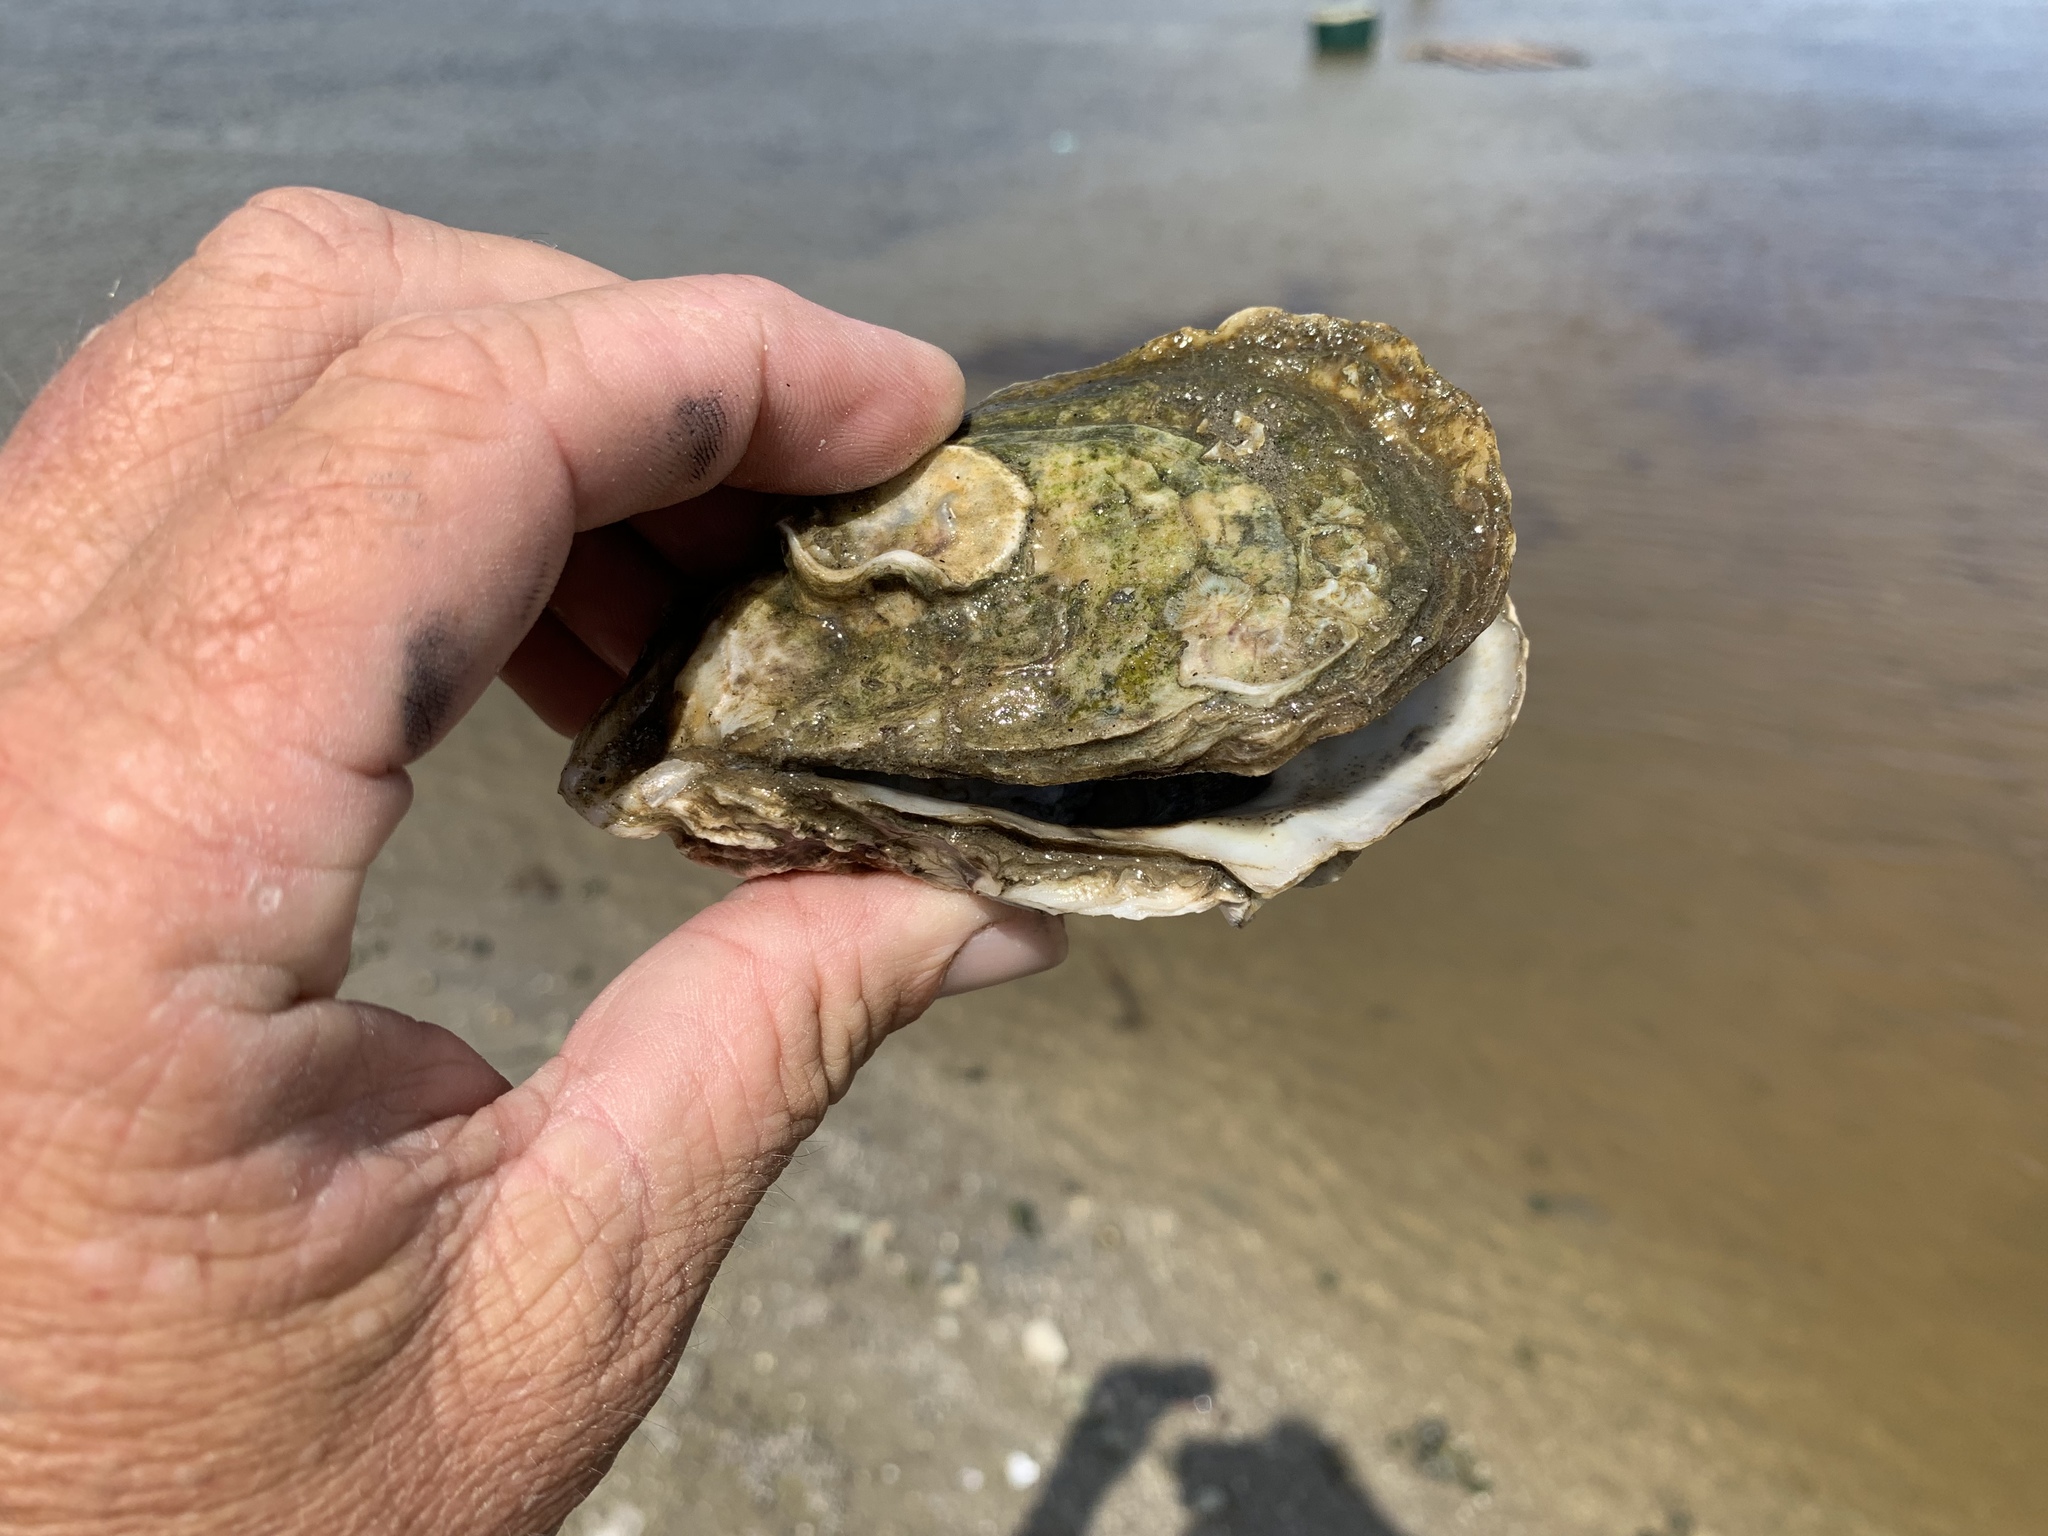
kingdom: Animalia
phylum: Mollusca
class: Bivalvia
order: Ostreida
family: Ostreidae
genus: Crassostrea
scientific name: Crassostrea virginica
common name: American oyster
